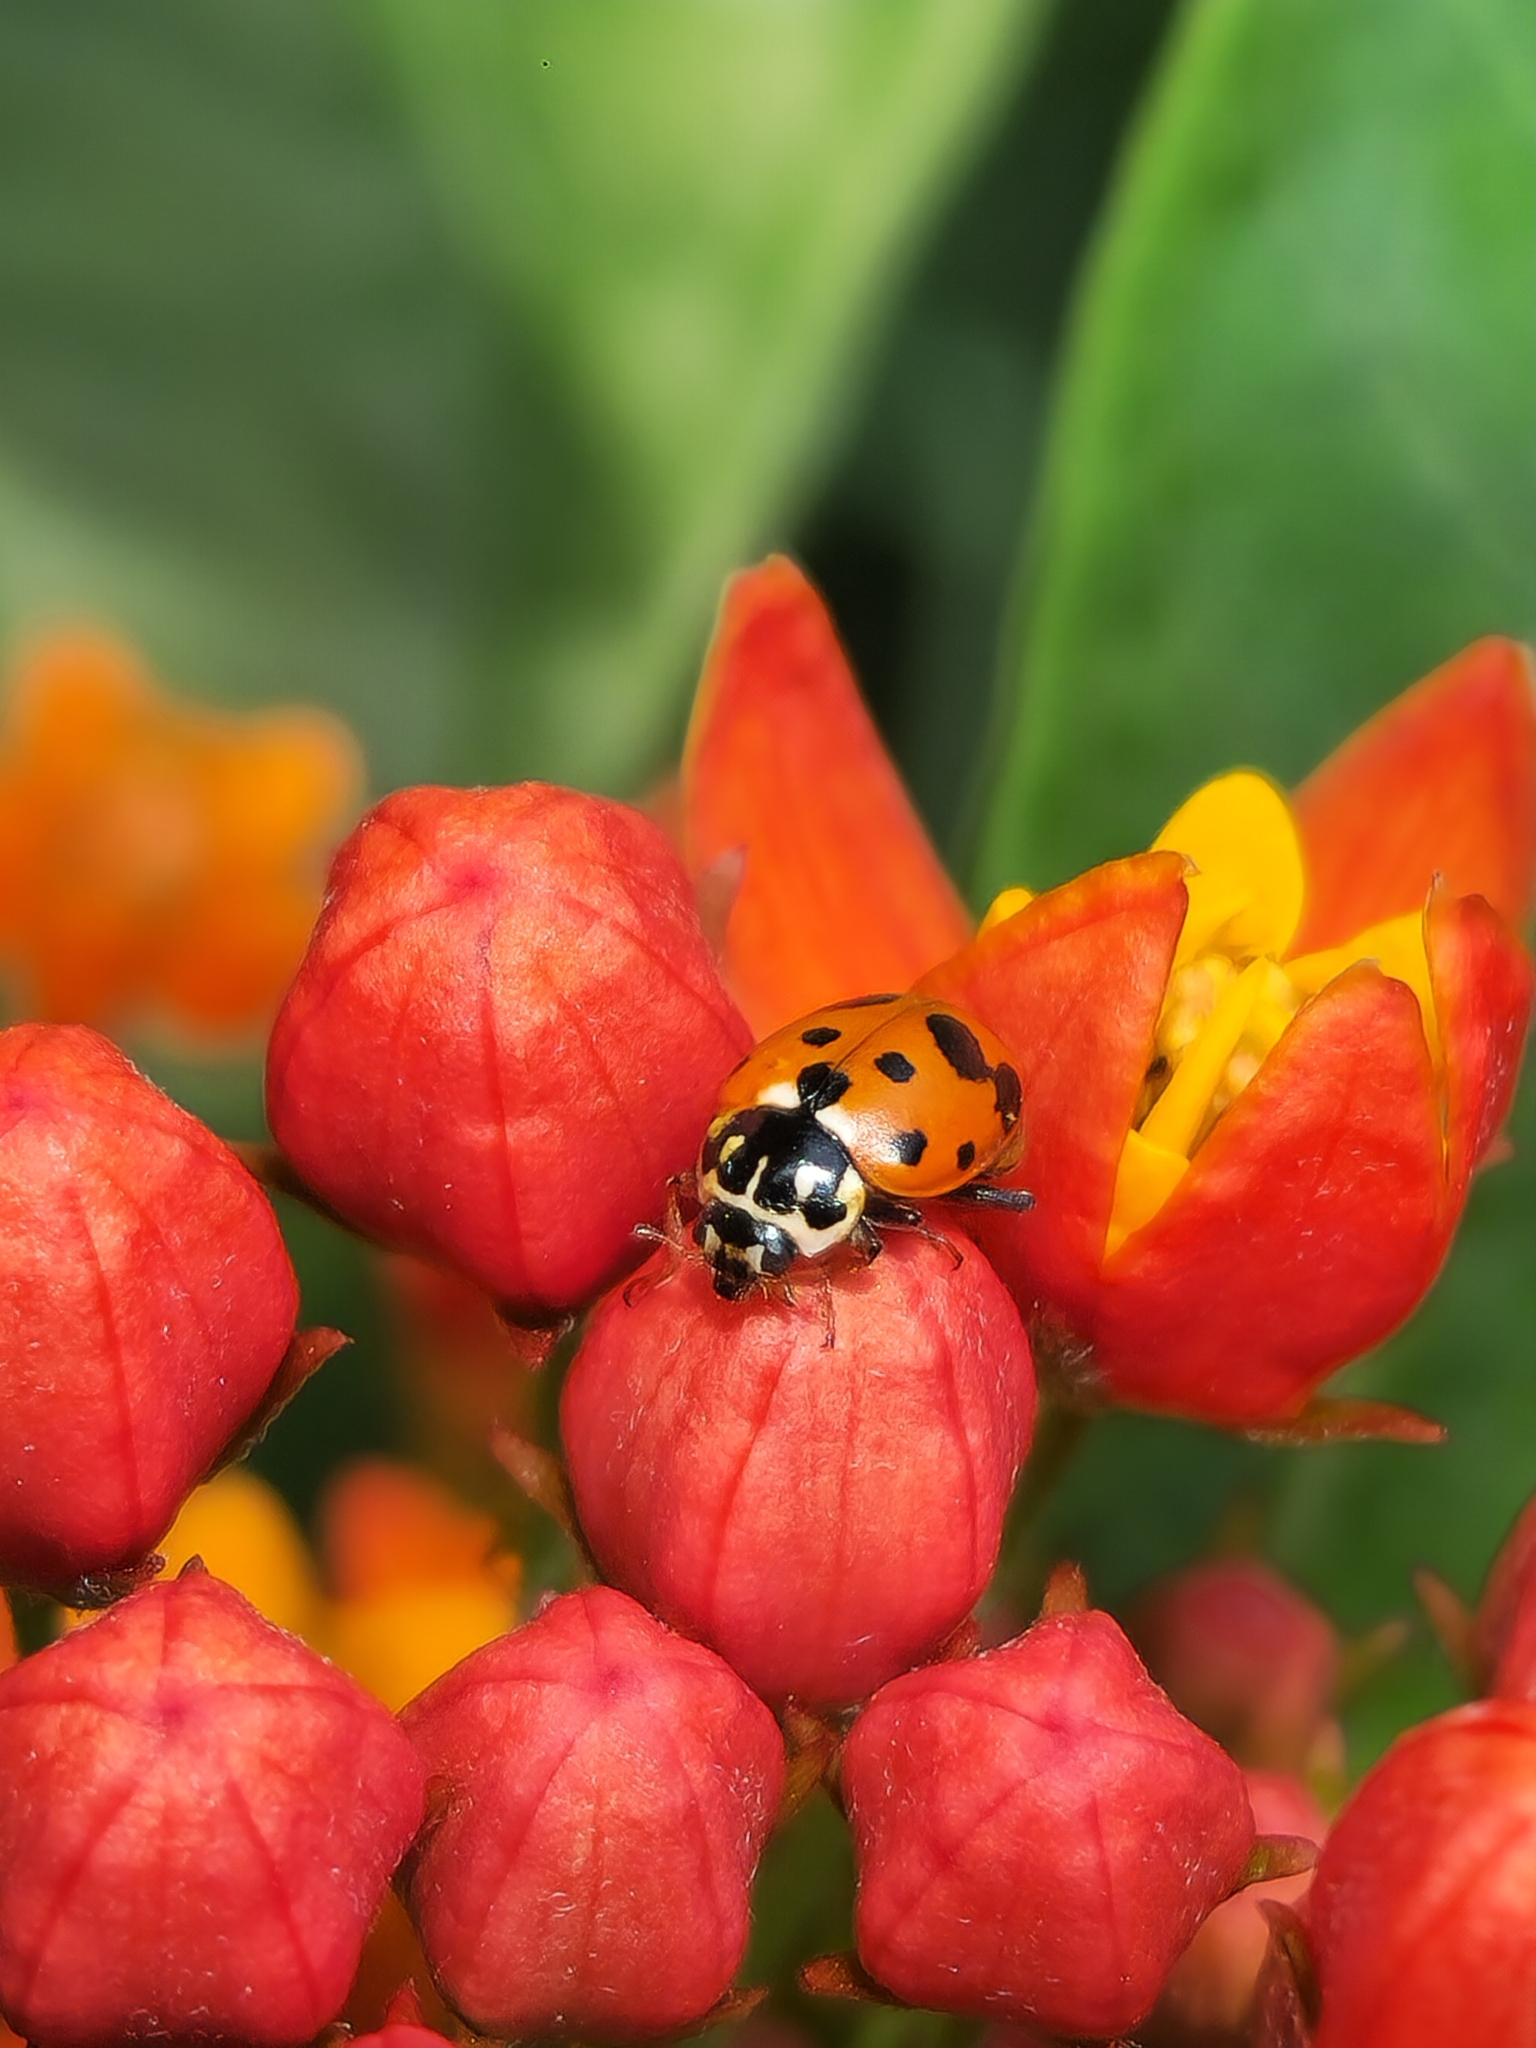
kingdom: Animalia
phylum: Arthropoda
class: Insecta
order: Coleoptera
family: Coccinellidae
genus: Hippodamia
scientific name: Hippodamia variegata
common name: Ladybird beetle
